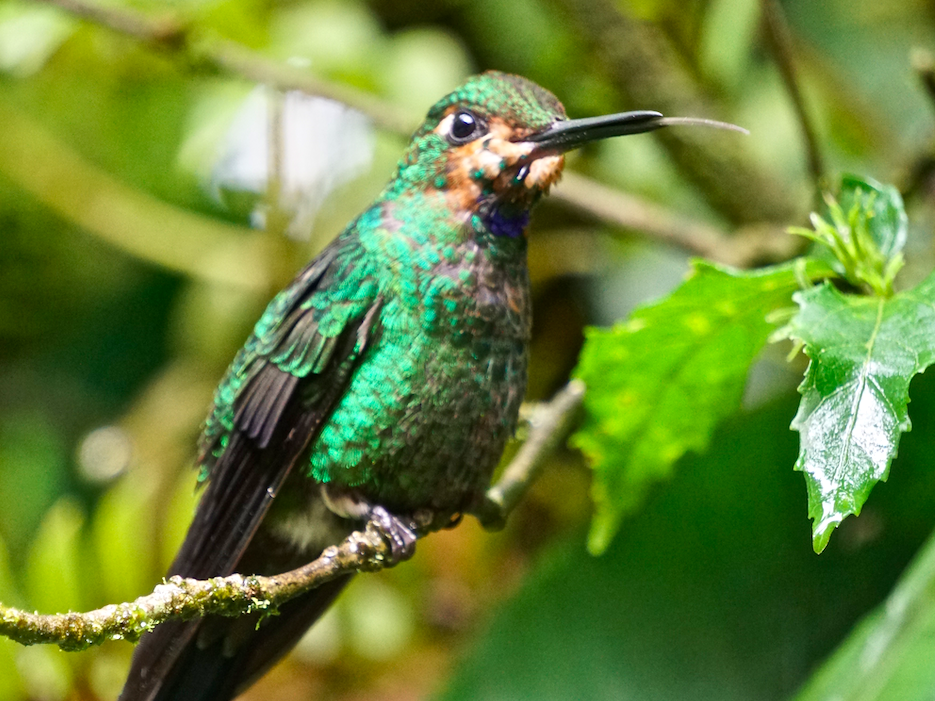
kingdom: Animalia
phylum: Chordata
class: Aves
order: Apodiformes
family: Trochilidae
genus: Heliodoxa
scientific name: Heliodoxa jacula
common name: Green-crowned brilliant
